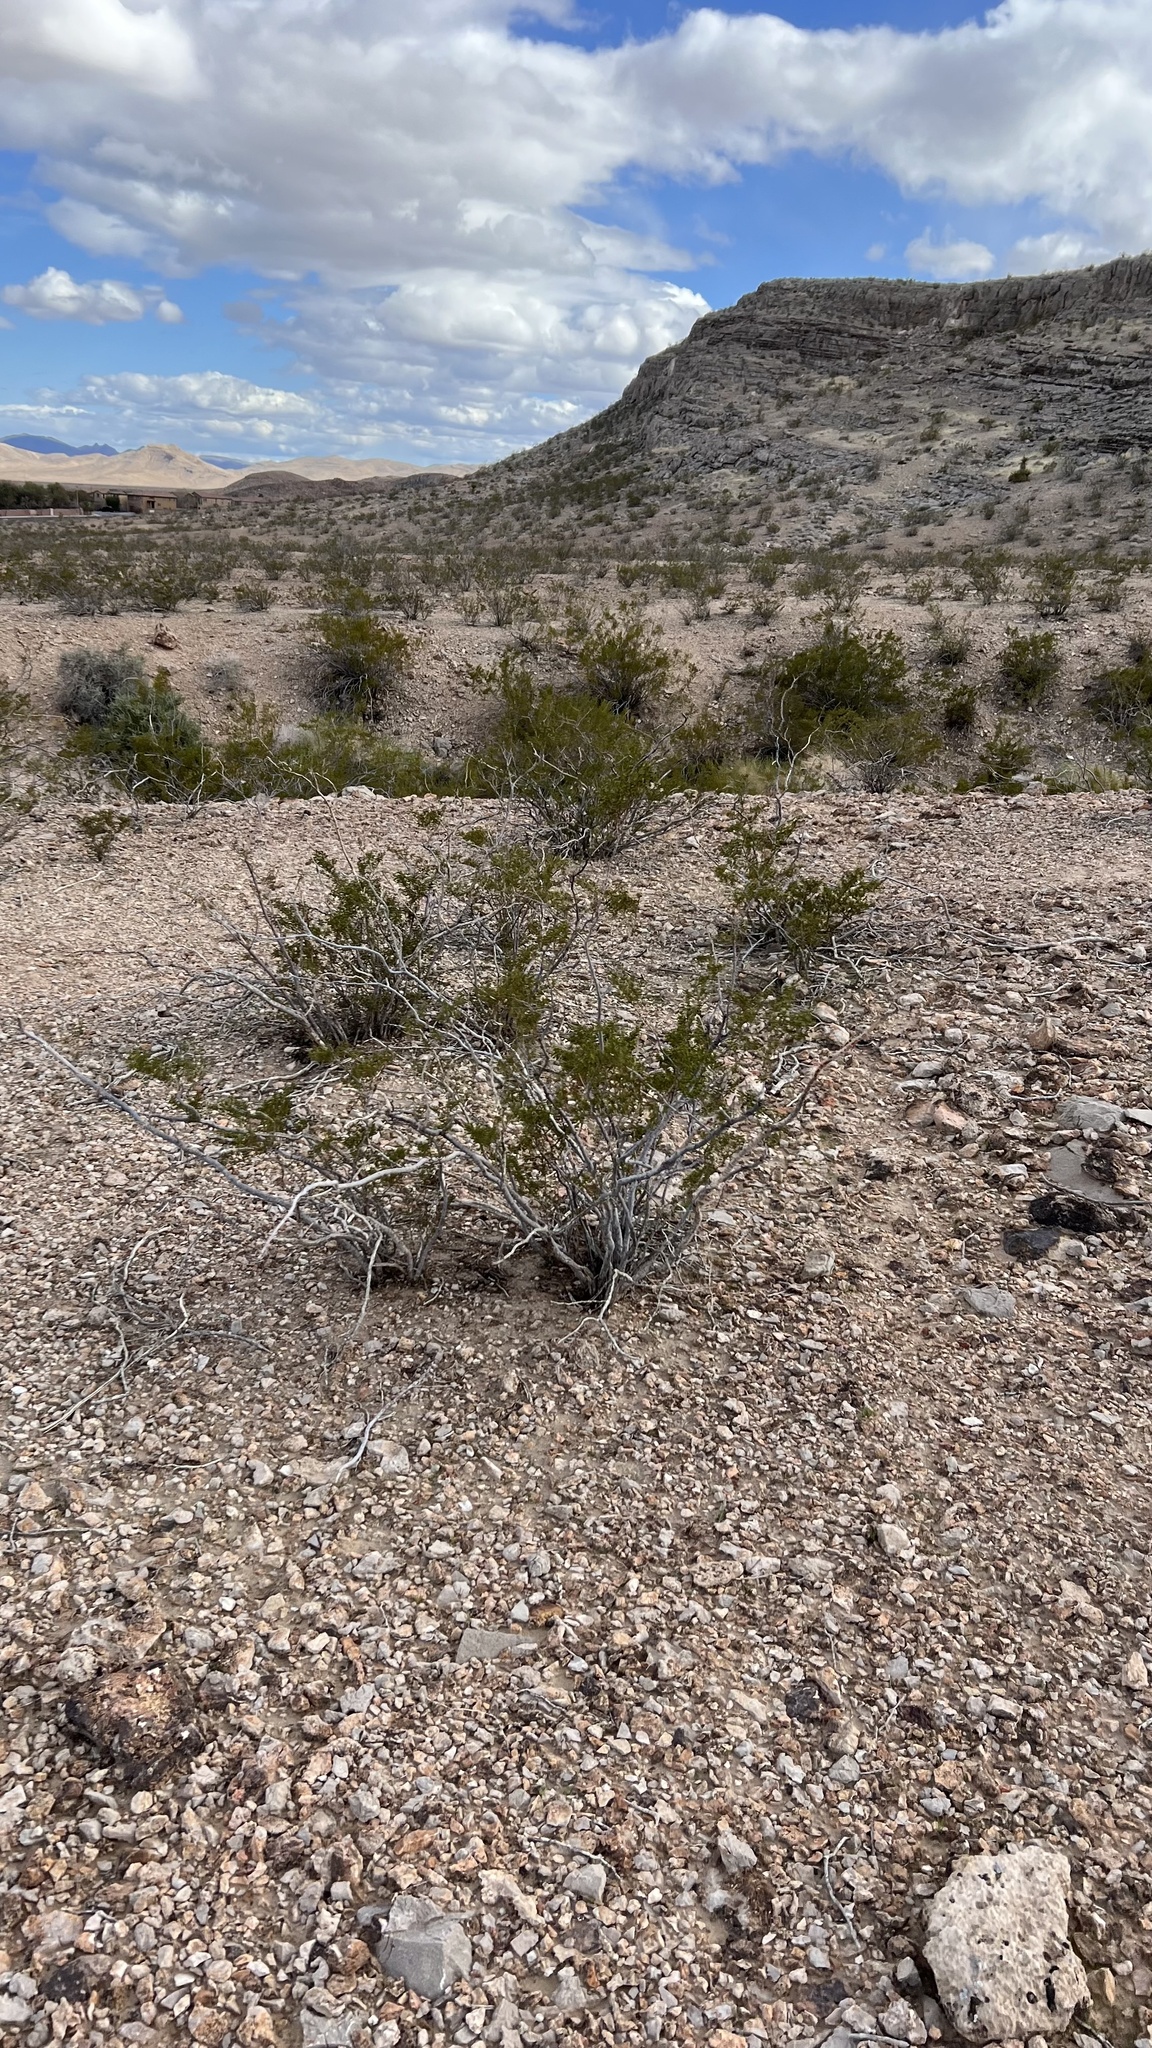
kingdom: Plantae
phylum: Tracheophyta
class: Magnoliopsida
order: Zygophyllales
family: Zygophyllaceae
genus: Larrea
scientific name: Larrea tridentata
